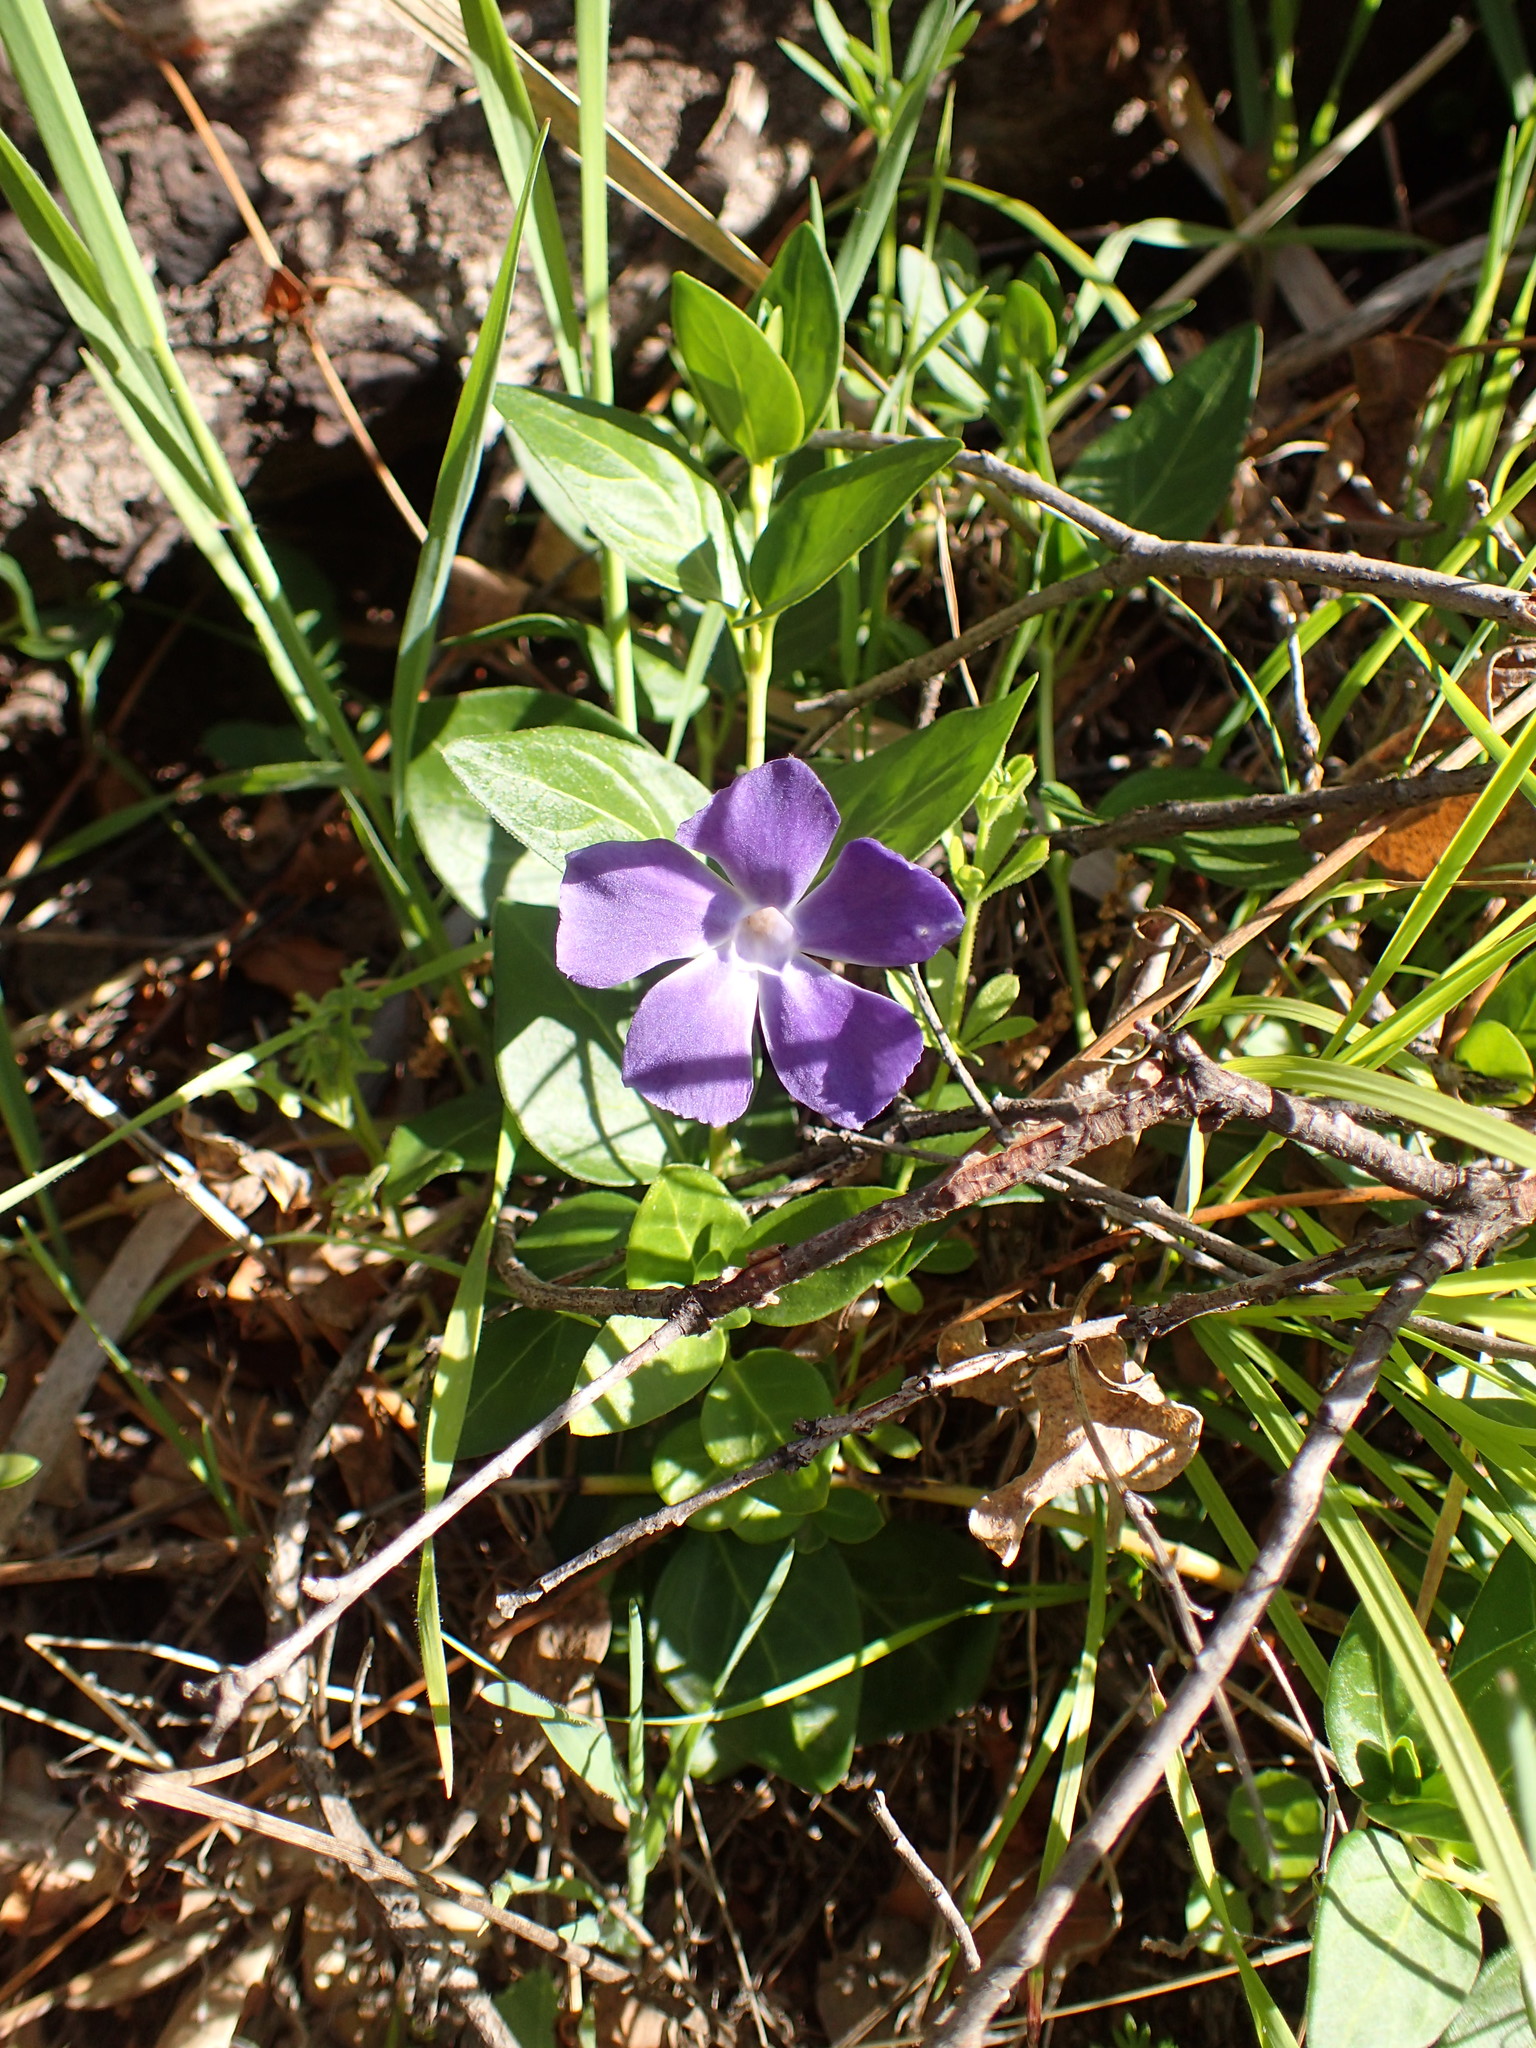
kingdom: Plantae
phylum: Tracheophyta
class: Magnoliopsida
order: Gentianales
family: Apocynaceae
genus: Vinca
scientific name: Vinca major
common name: Greater periwinkle
